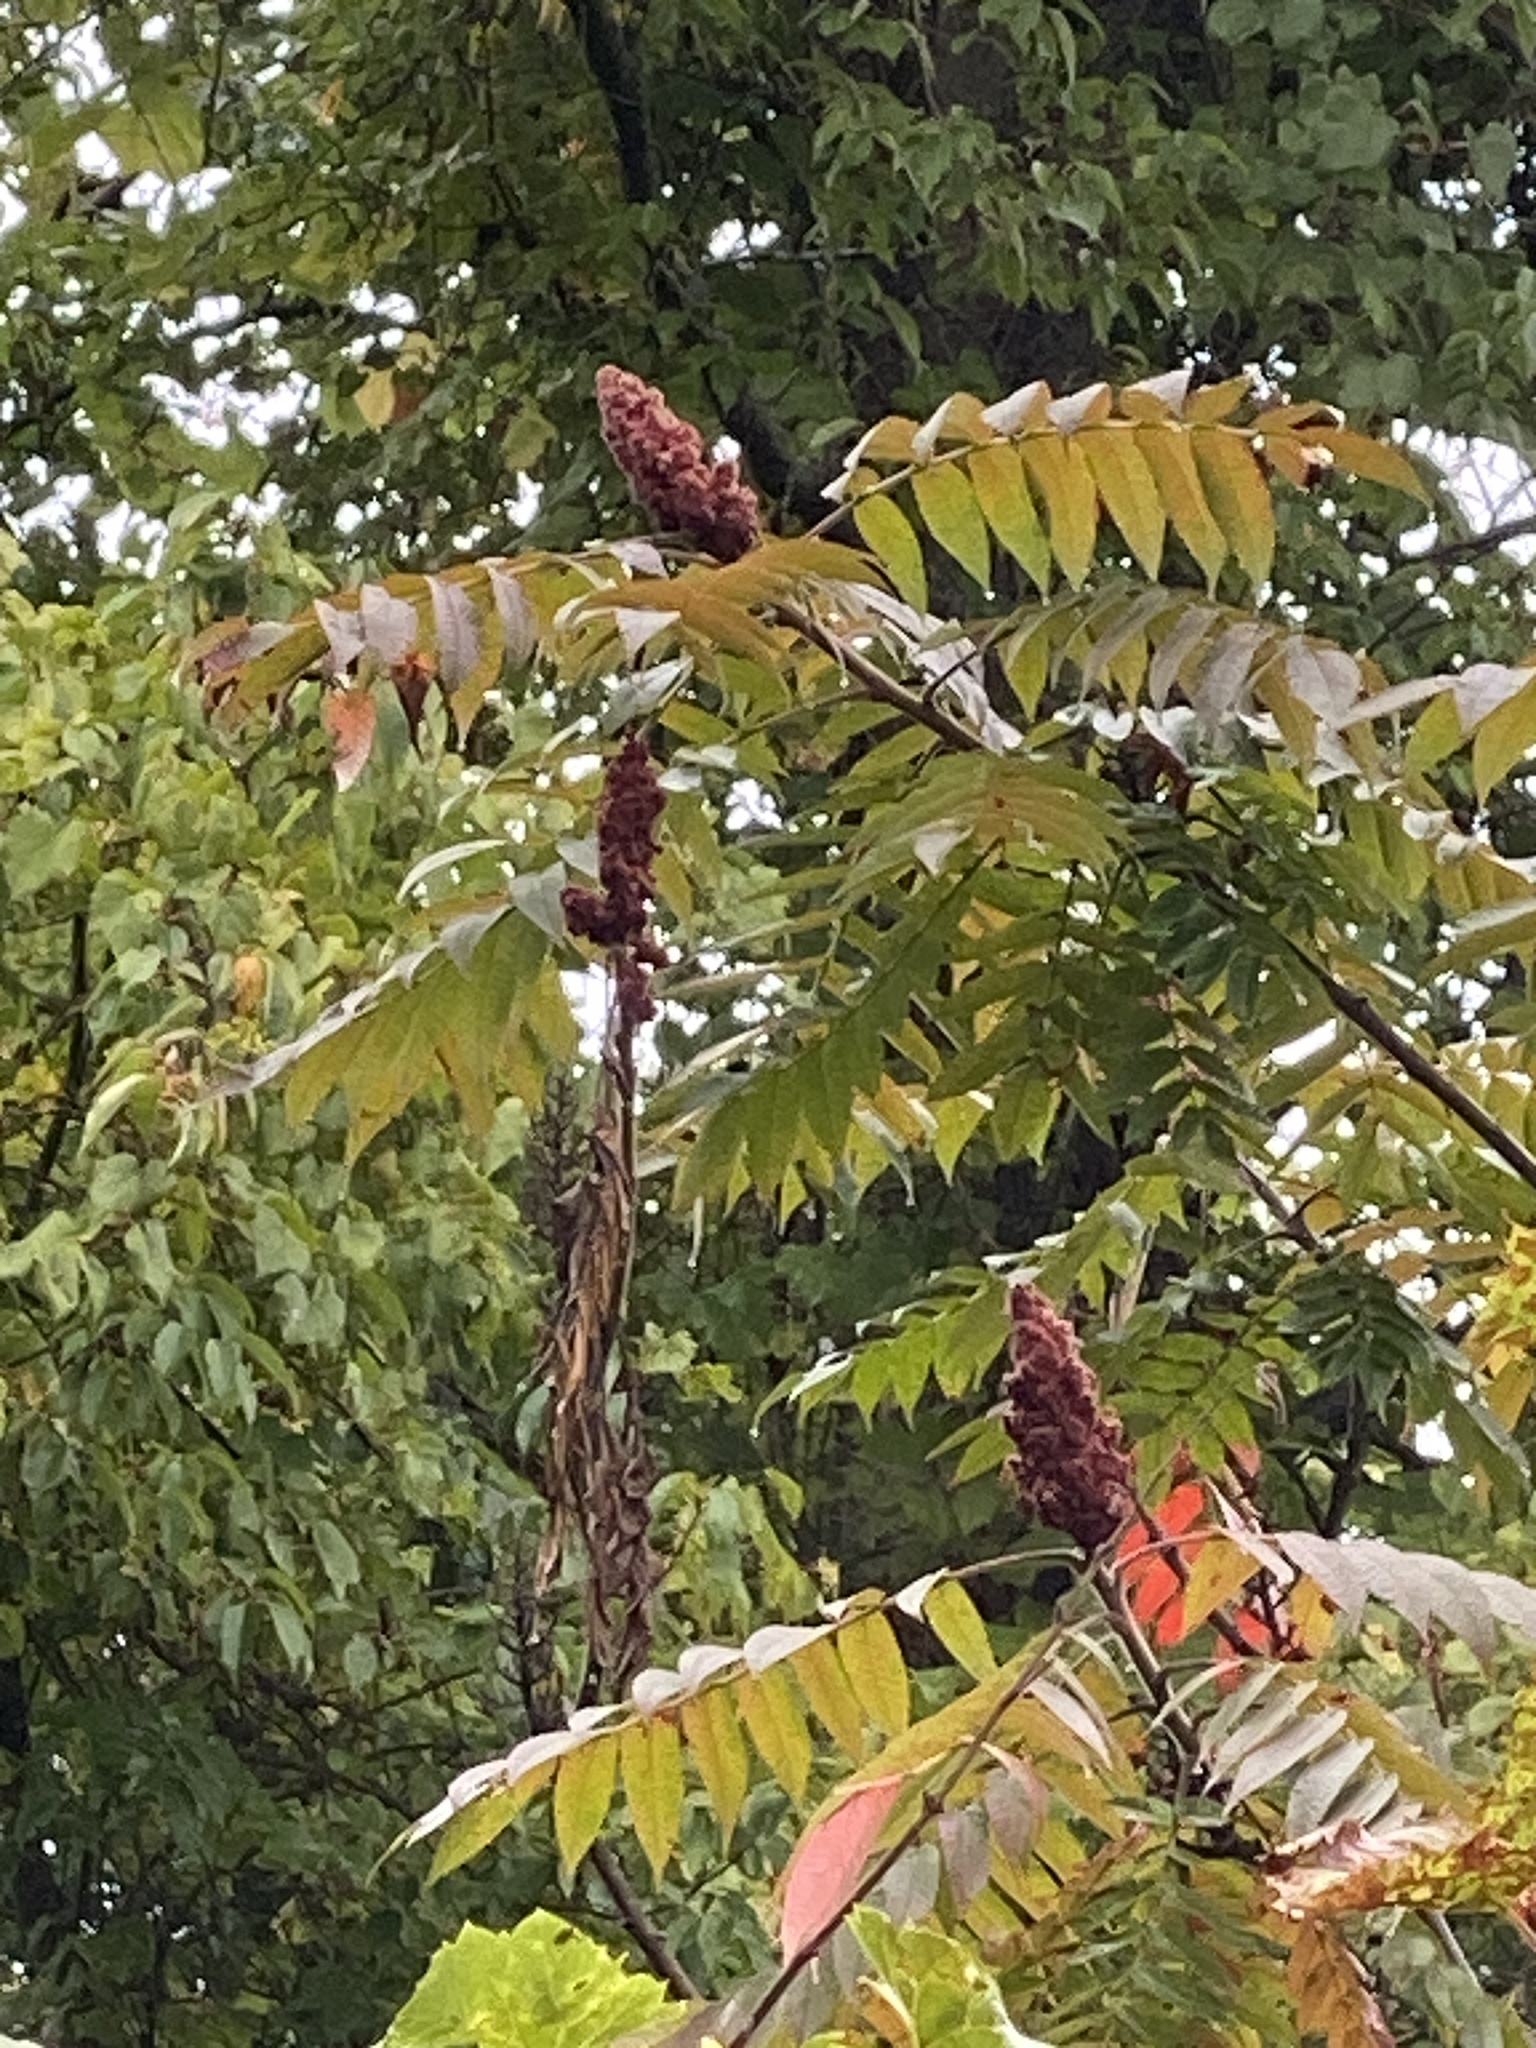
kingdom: Plantae
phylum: Tracheophyta
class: Magnoliopsida
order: Sapindales
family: Anacardiaceae
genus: Rhus
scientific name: Rhus typhina
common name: Staghorn sumac
